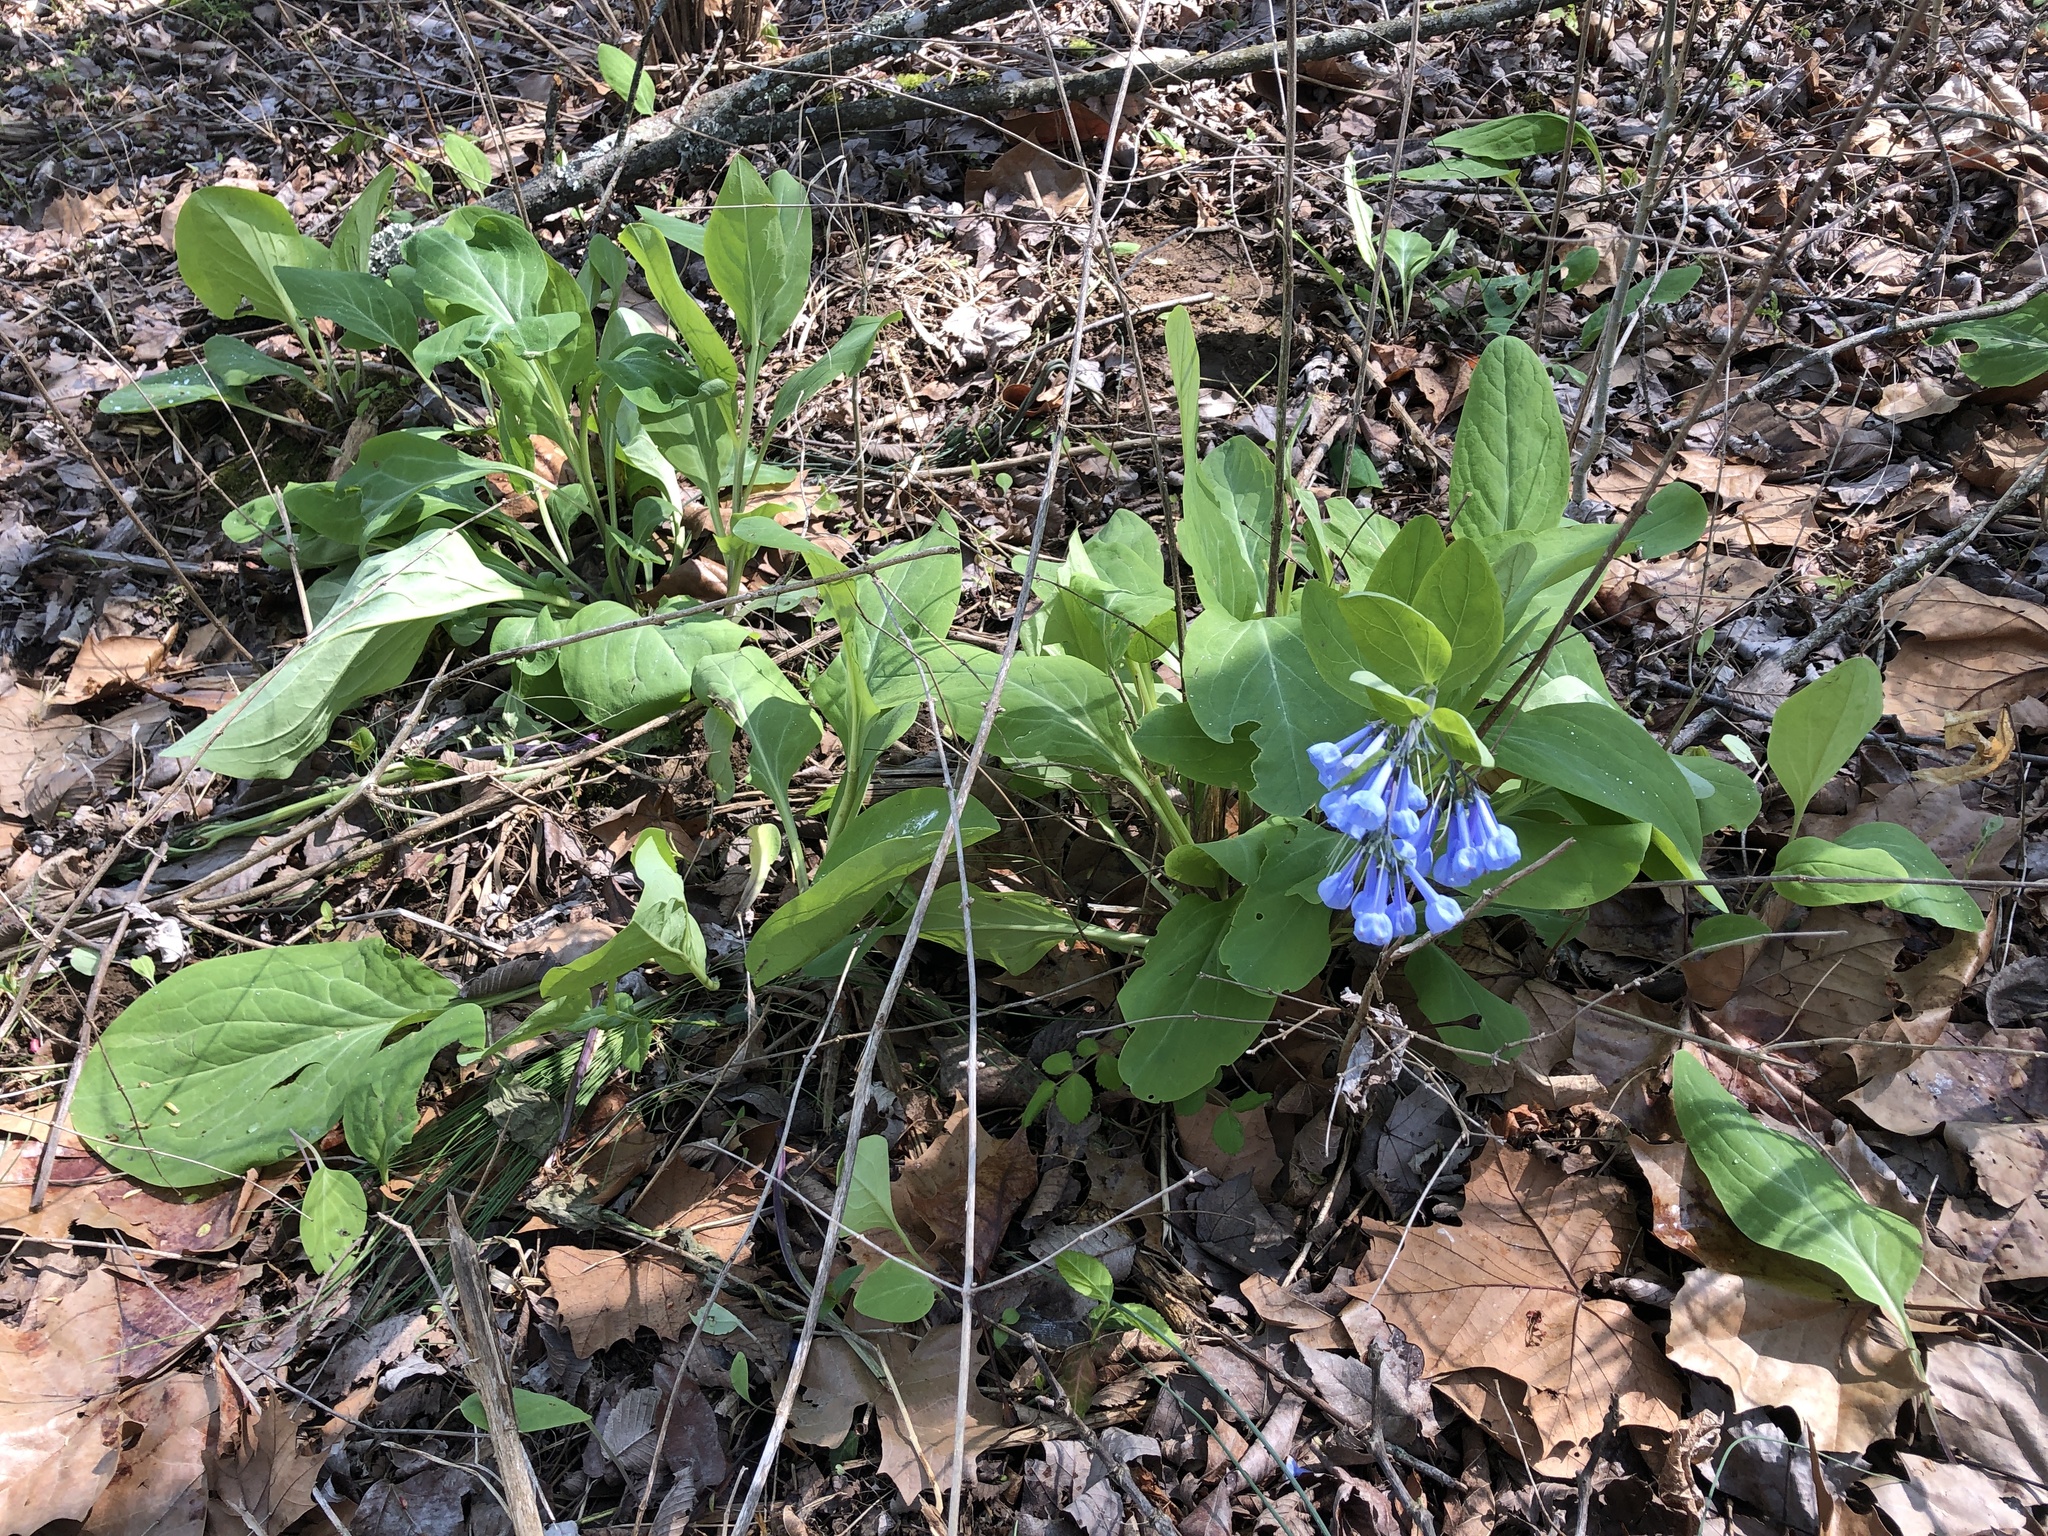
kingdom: Plantae
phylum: Tracheophyta
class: Magnoliopsida
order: Boraginales
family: Boraginaceae
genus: Mertensia
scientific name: Mertensia virginica
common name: Virginia bluebells
